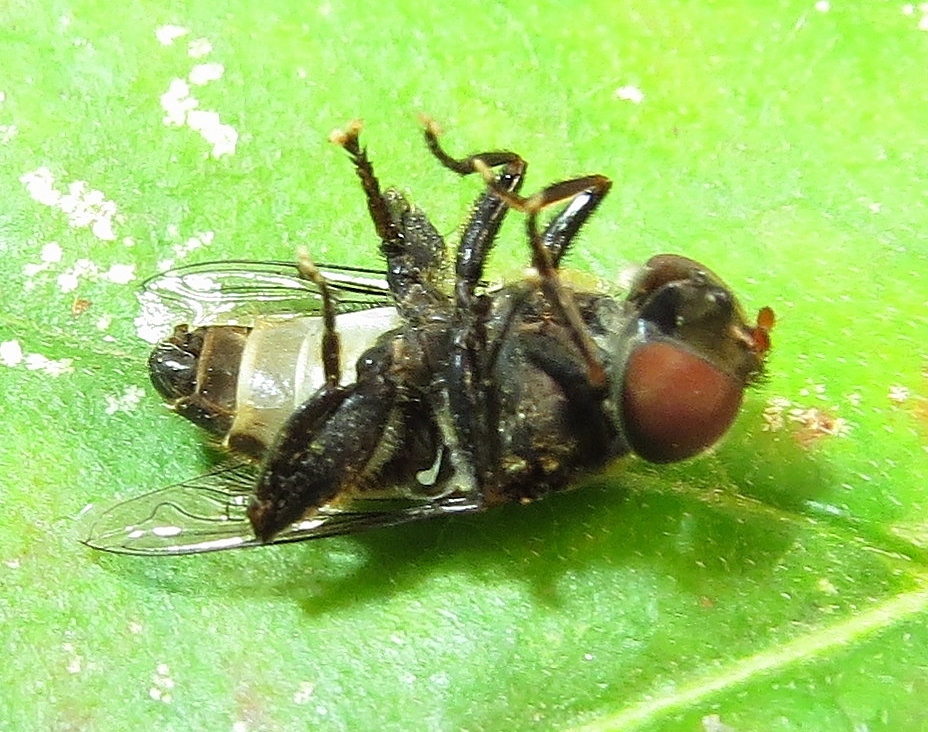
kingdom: Animalia
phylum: Arthropoda
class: Insecta
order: Diptera
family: Syrphidae
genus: Palpada
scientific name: Palpada furcata
